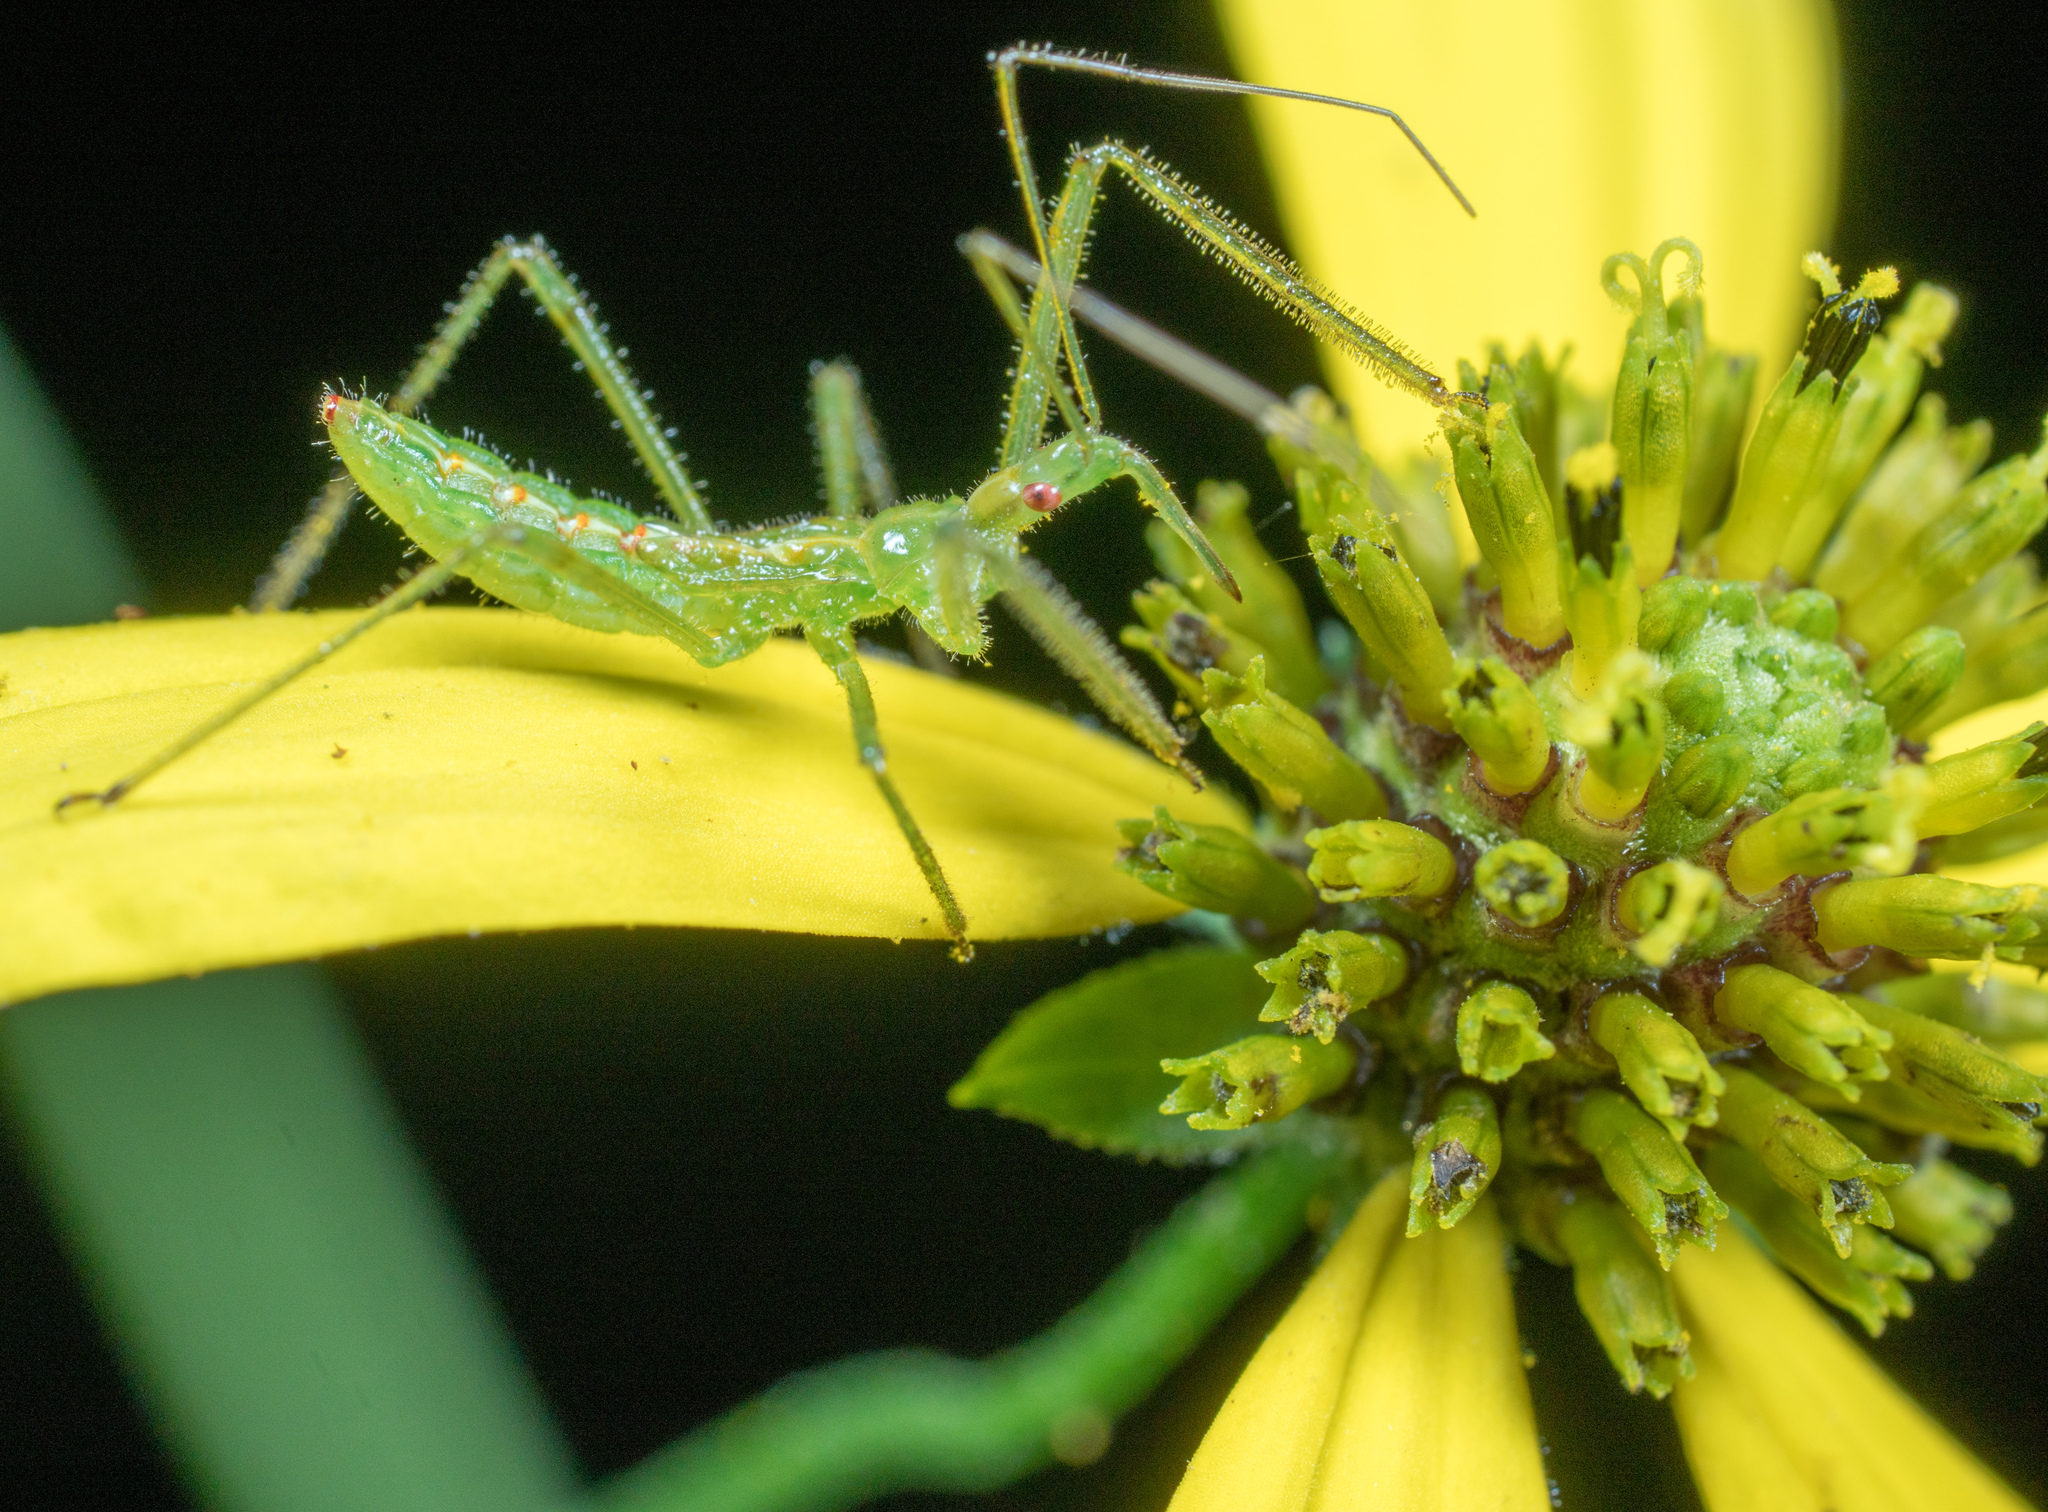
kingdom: Animalia
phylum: Arthropoda
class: Insecta
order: Hemiptera
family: Reduviidae
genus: Zelus
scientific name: Zelus luridus
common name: Pale green assassin bug
